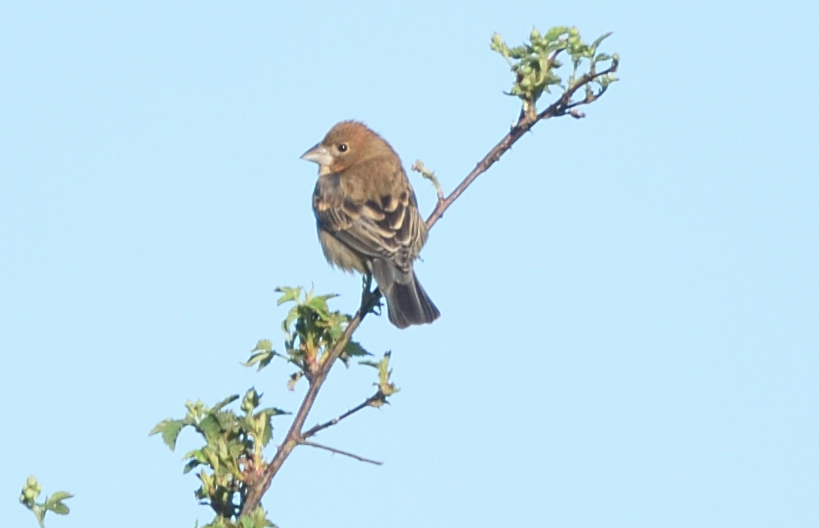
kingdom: Animalia
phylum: Chordata
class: Aves
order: Passeriformes
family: Cardinalidae
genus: Passerina
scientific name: Passerina caerulea
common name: Blue grosbeak
